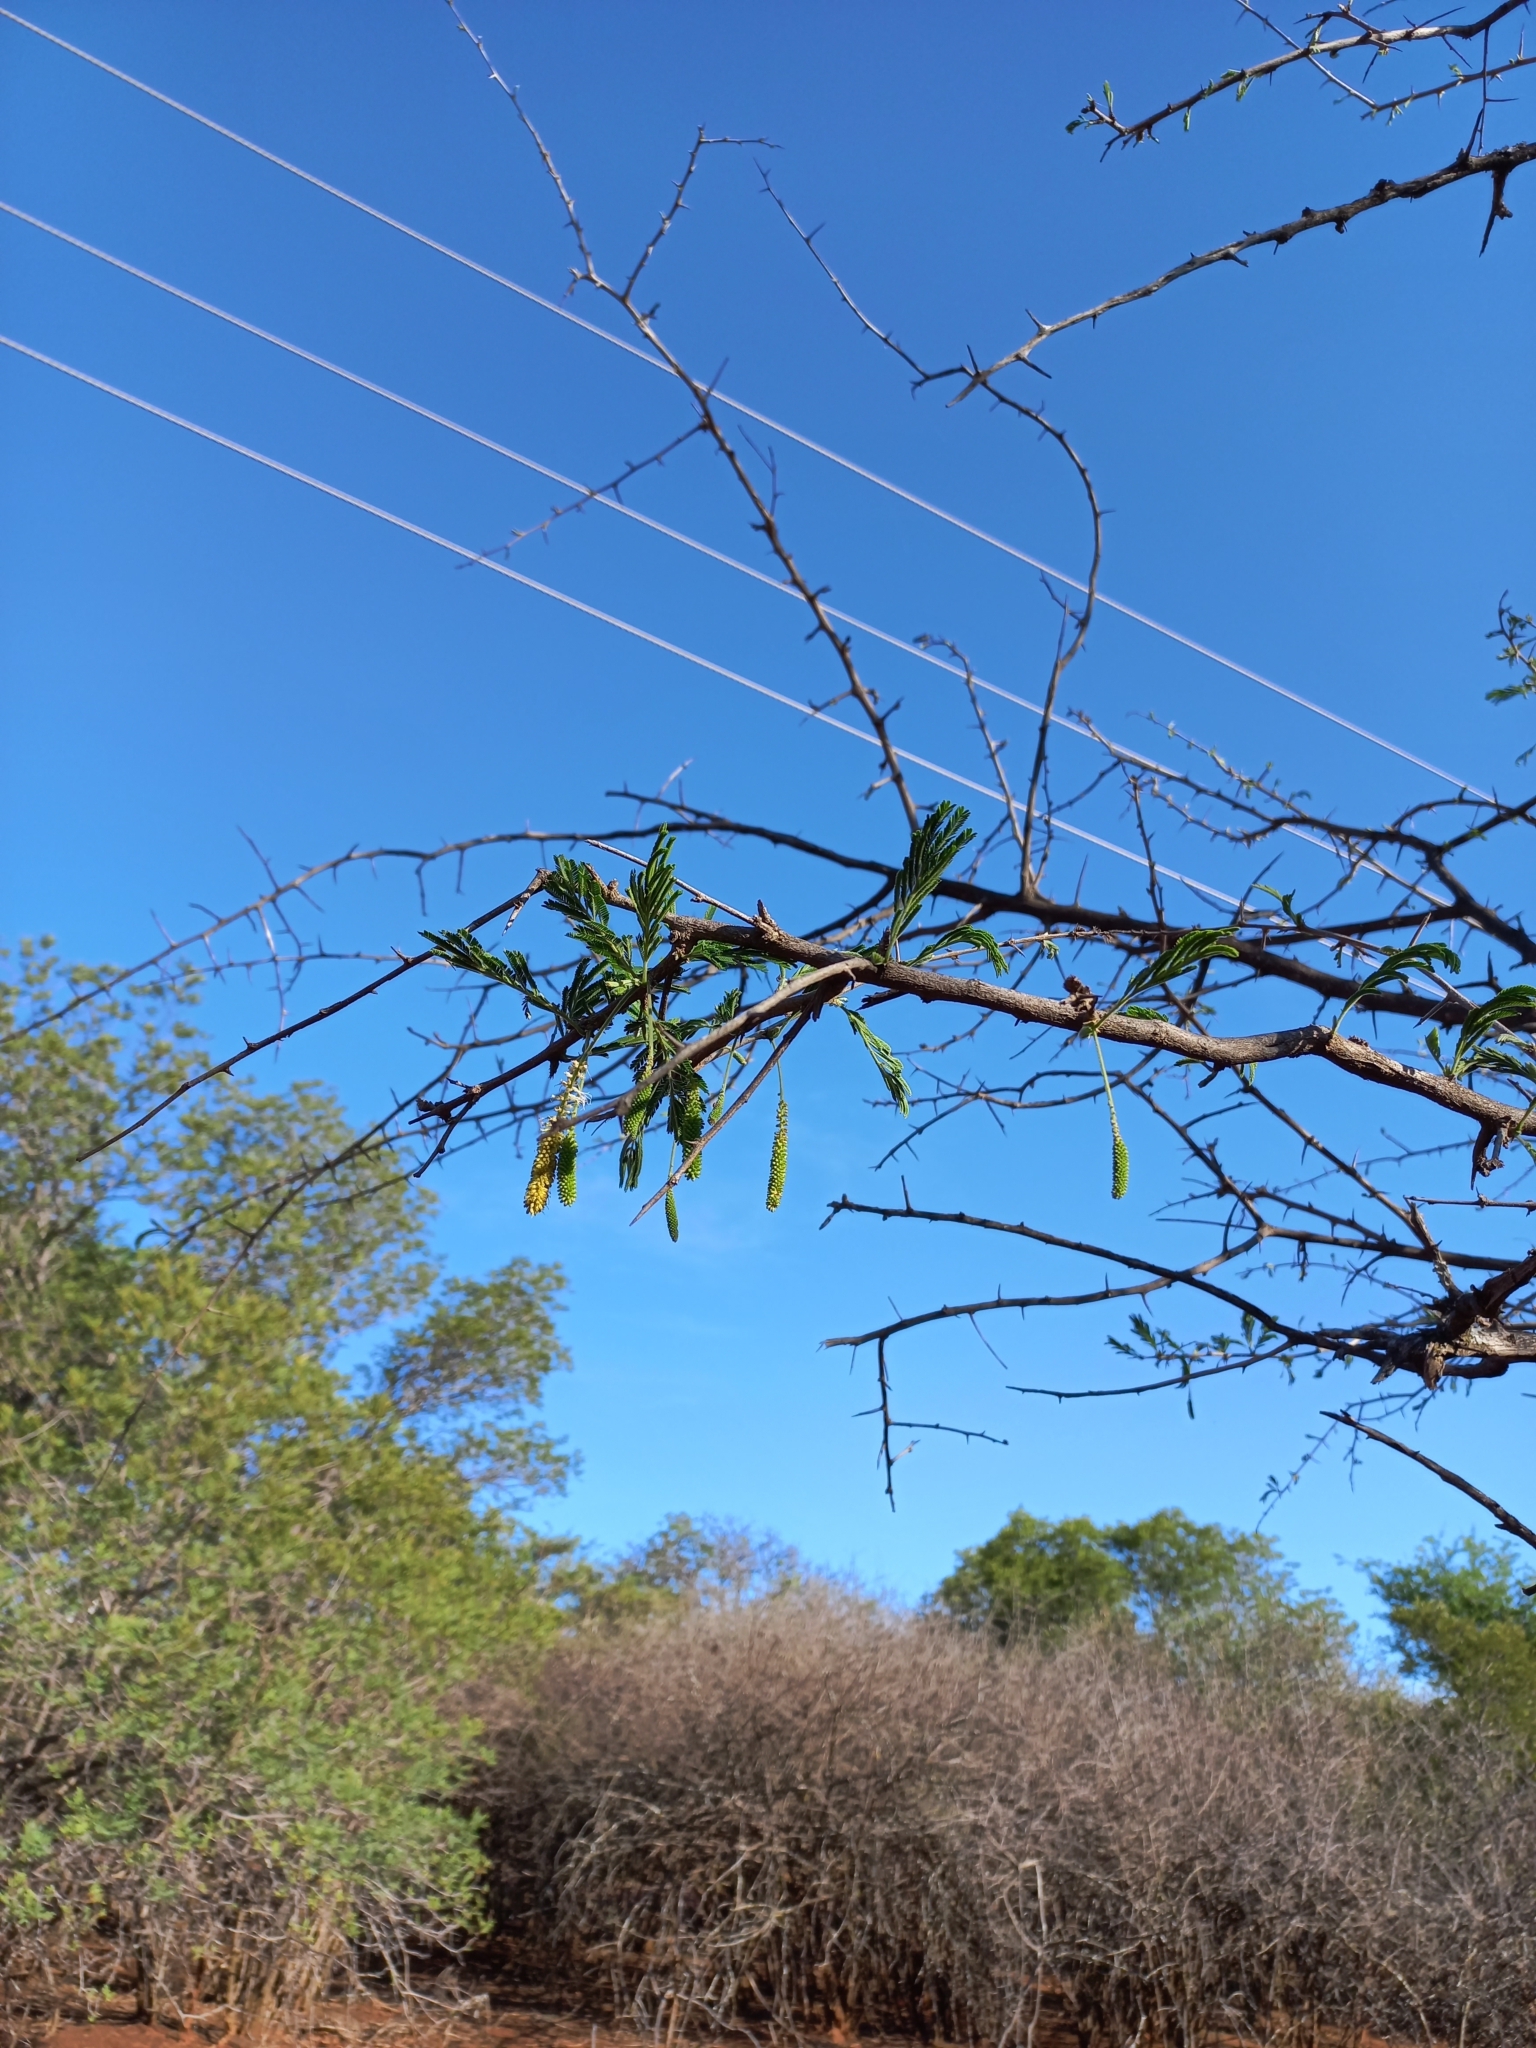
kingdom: Plantae
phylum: Tracheophyta
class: Magnoliopsida
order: Fabales
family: Fabaceae
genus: Dichrostachys
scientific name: Dichrostachys cinerea
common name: Sicklebush
